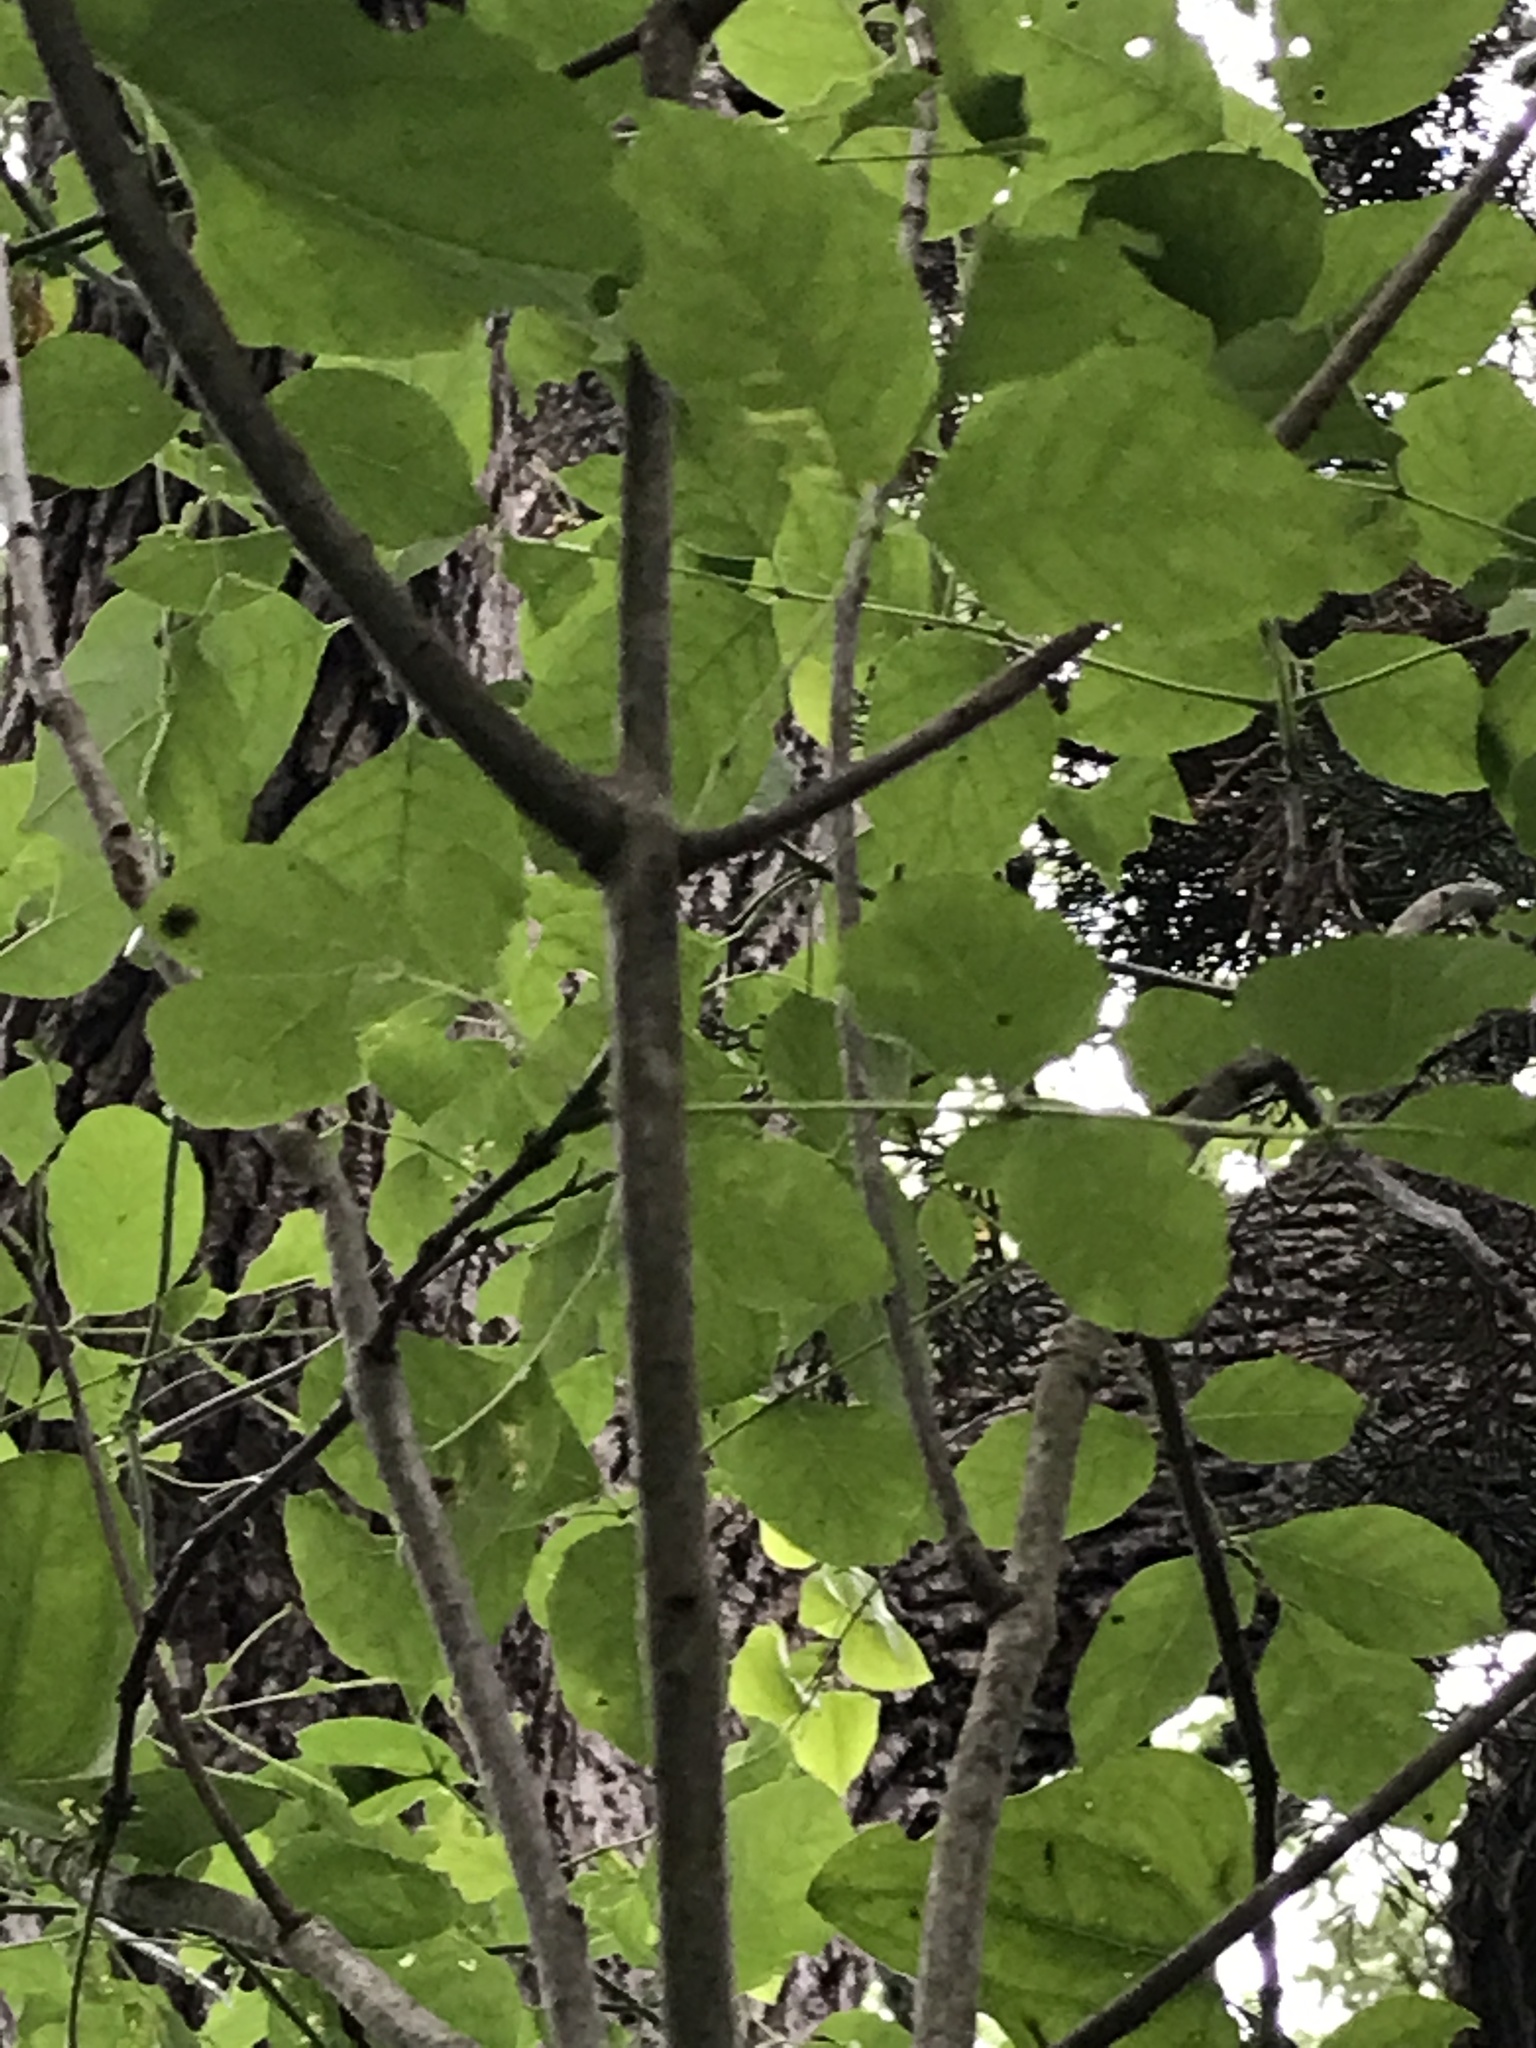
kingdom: Plantae
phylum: Tracheophyta
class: Magnoliopsida
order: Lamiales
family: Oleaceae
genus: Fraxinus
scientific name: Fraxinus albicans
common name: Texas ash
